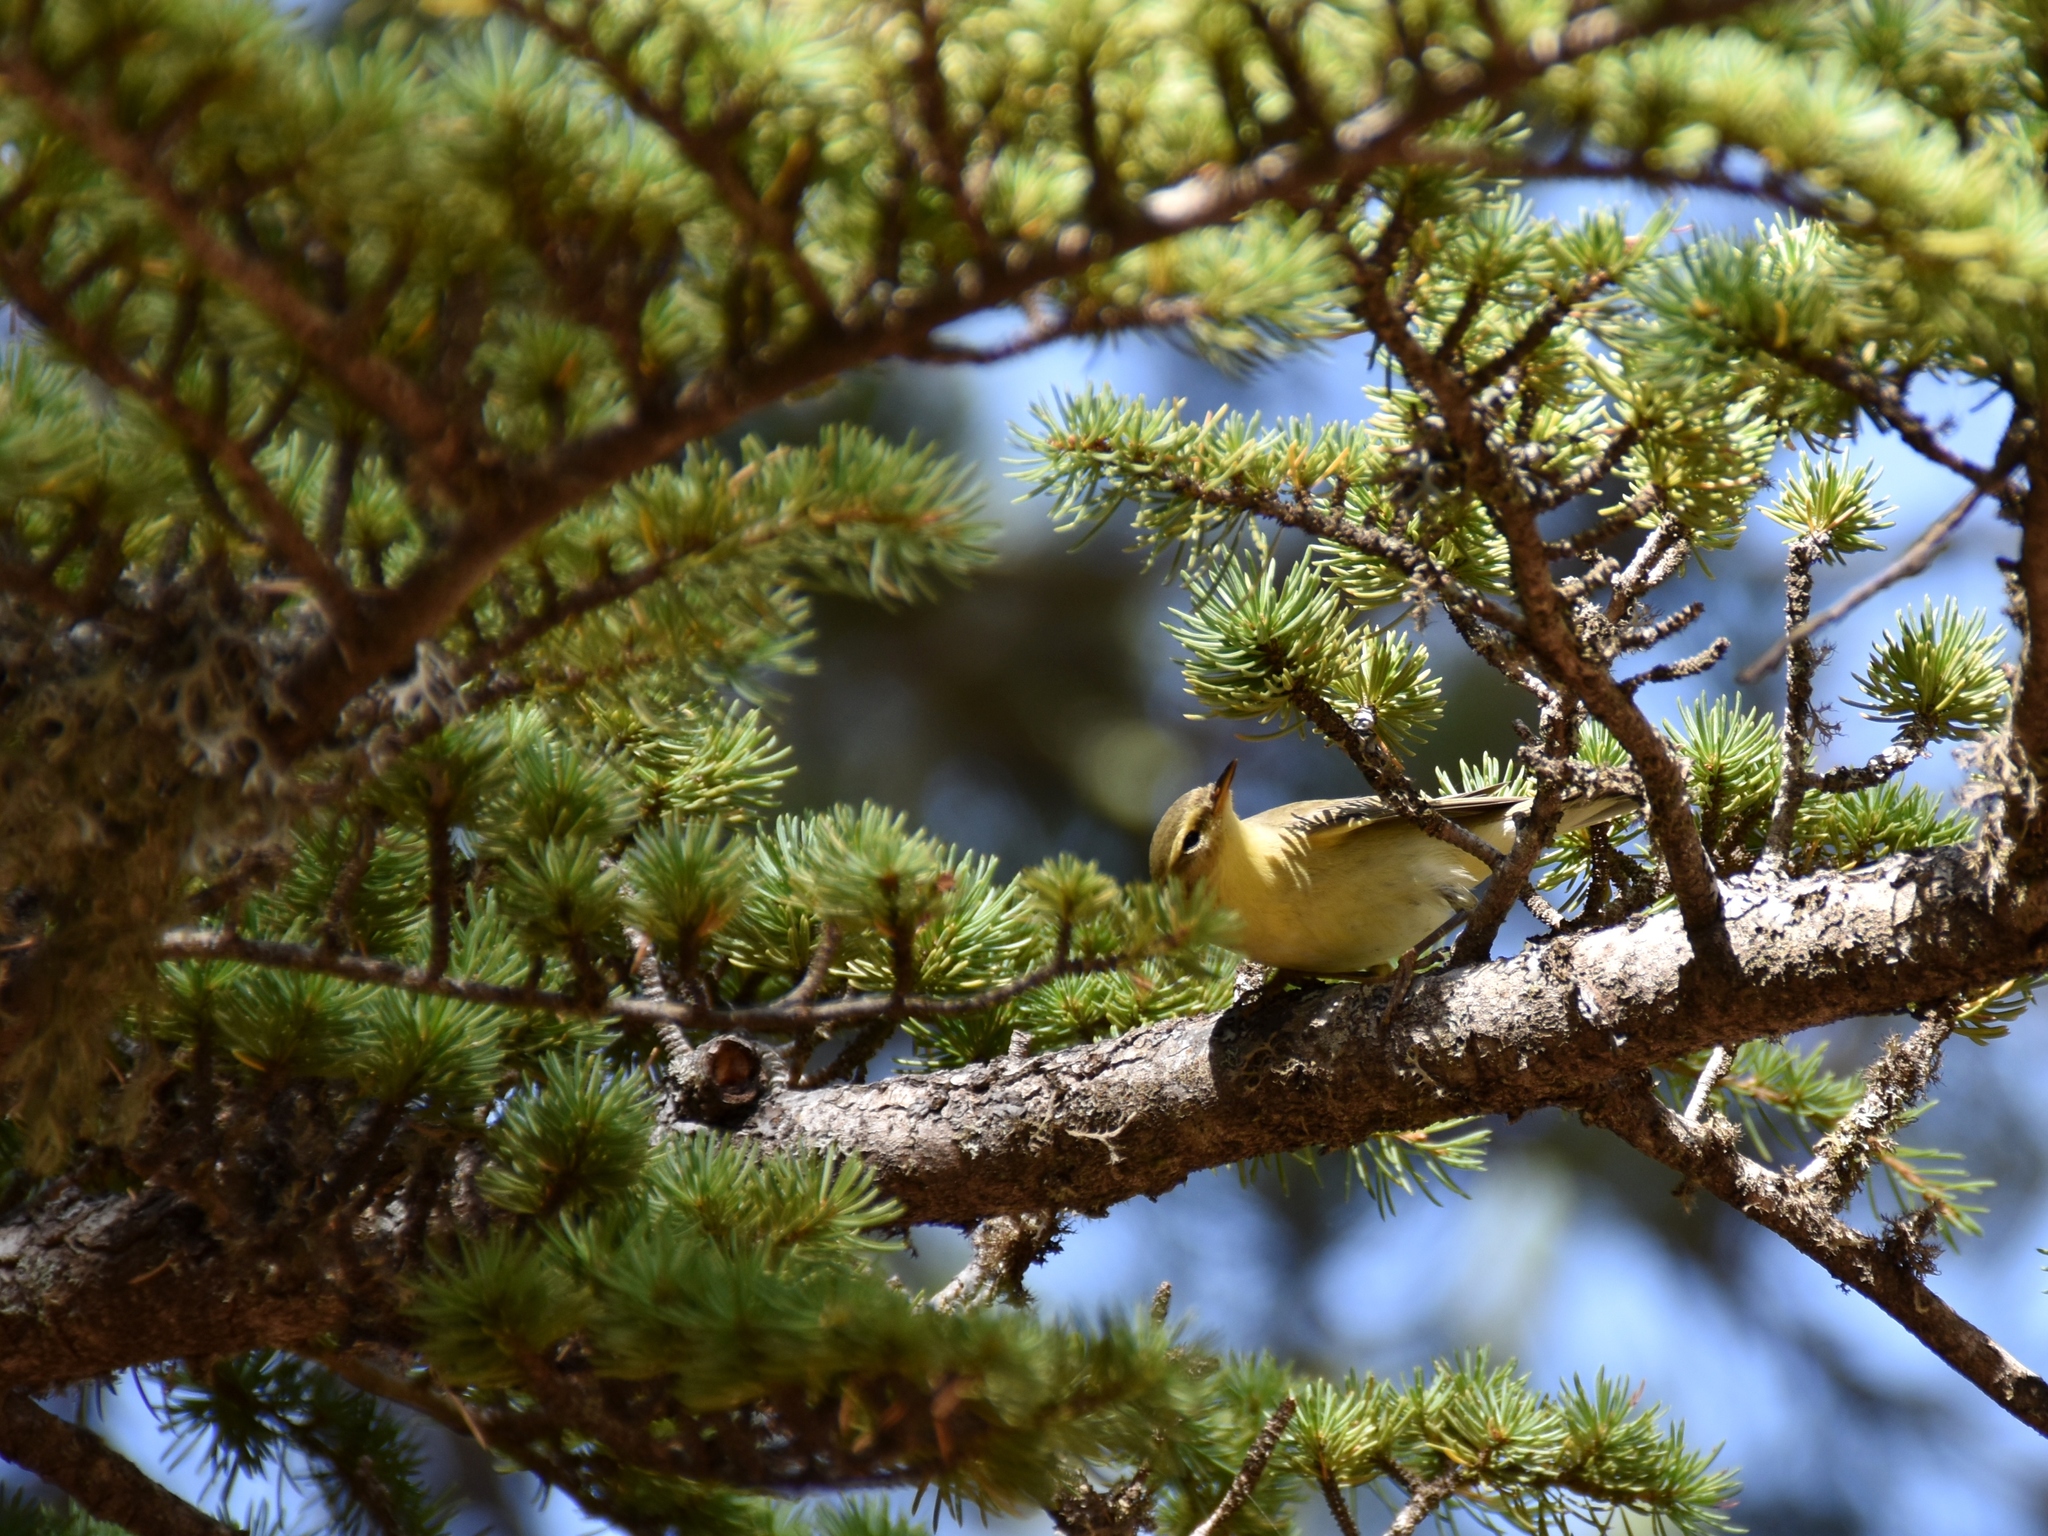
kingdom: Animalia
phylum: Chordata
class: Aves
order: Passeriformes
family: Phylloscopidae
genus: Phylloscopus
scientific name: Phylloscopus trochilus
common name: Willow warbler
